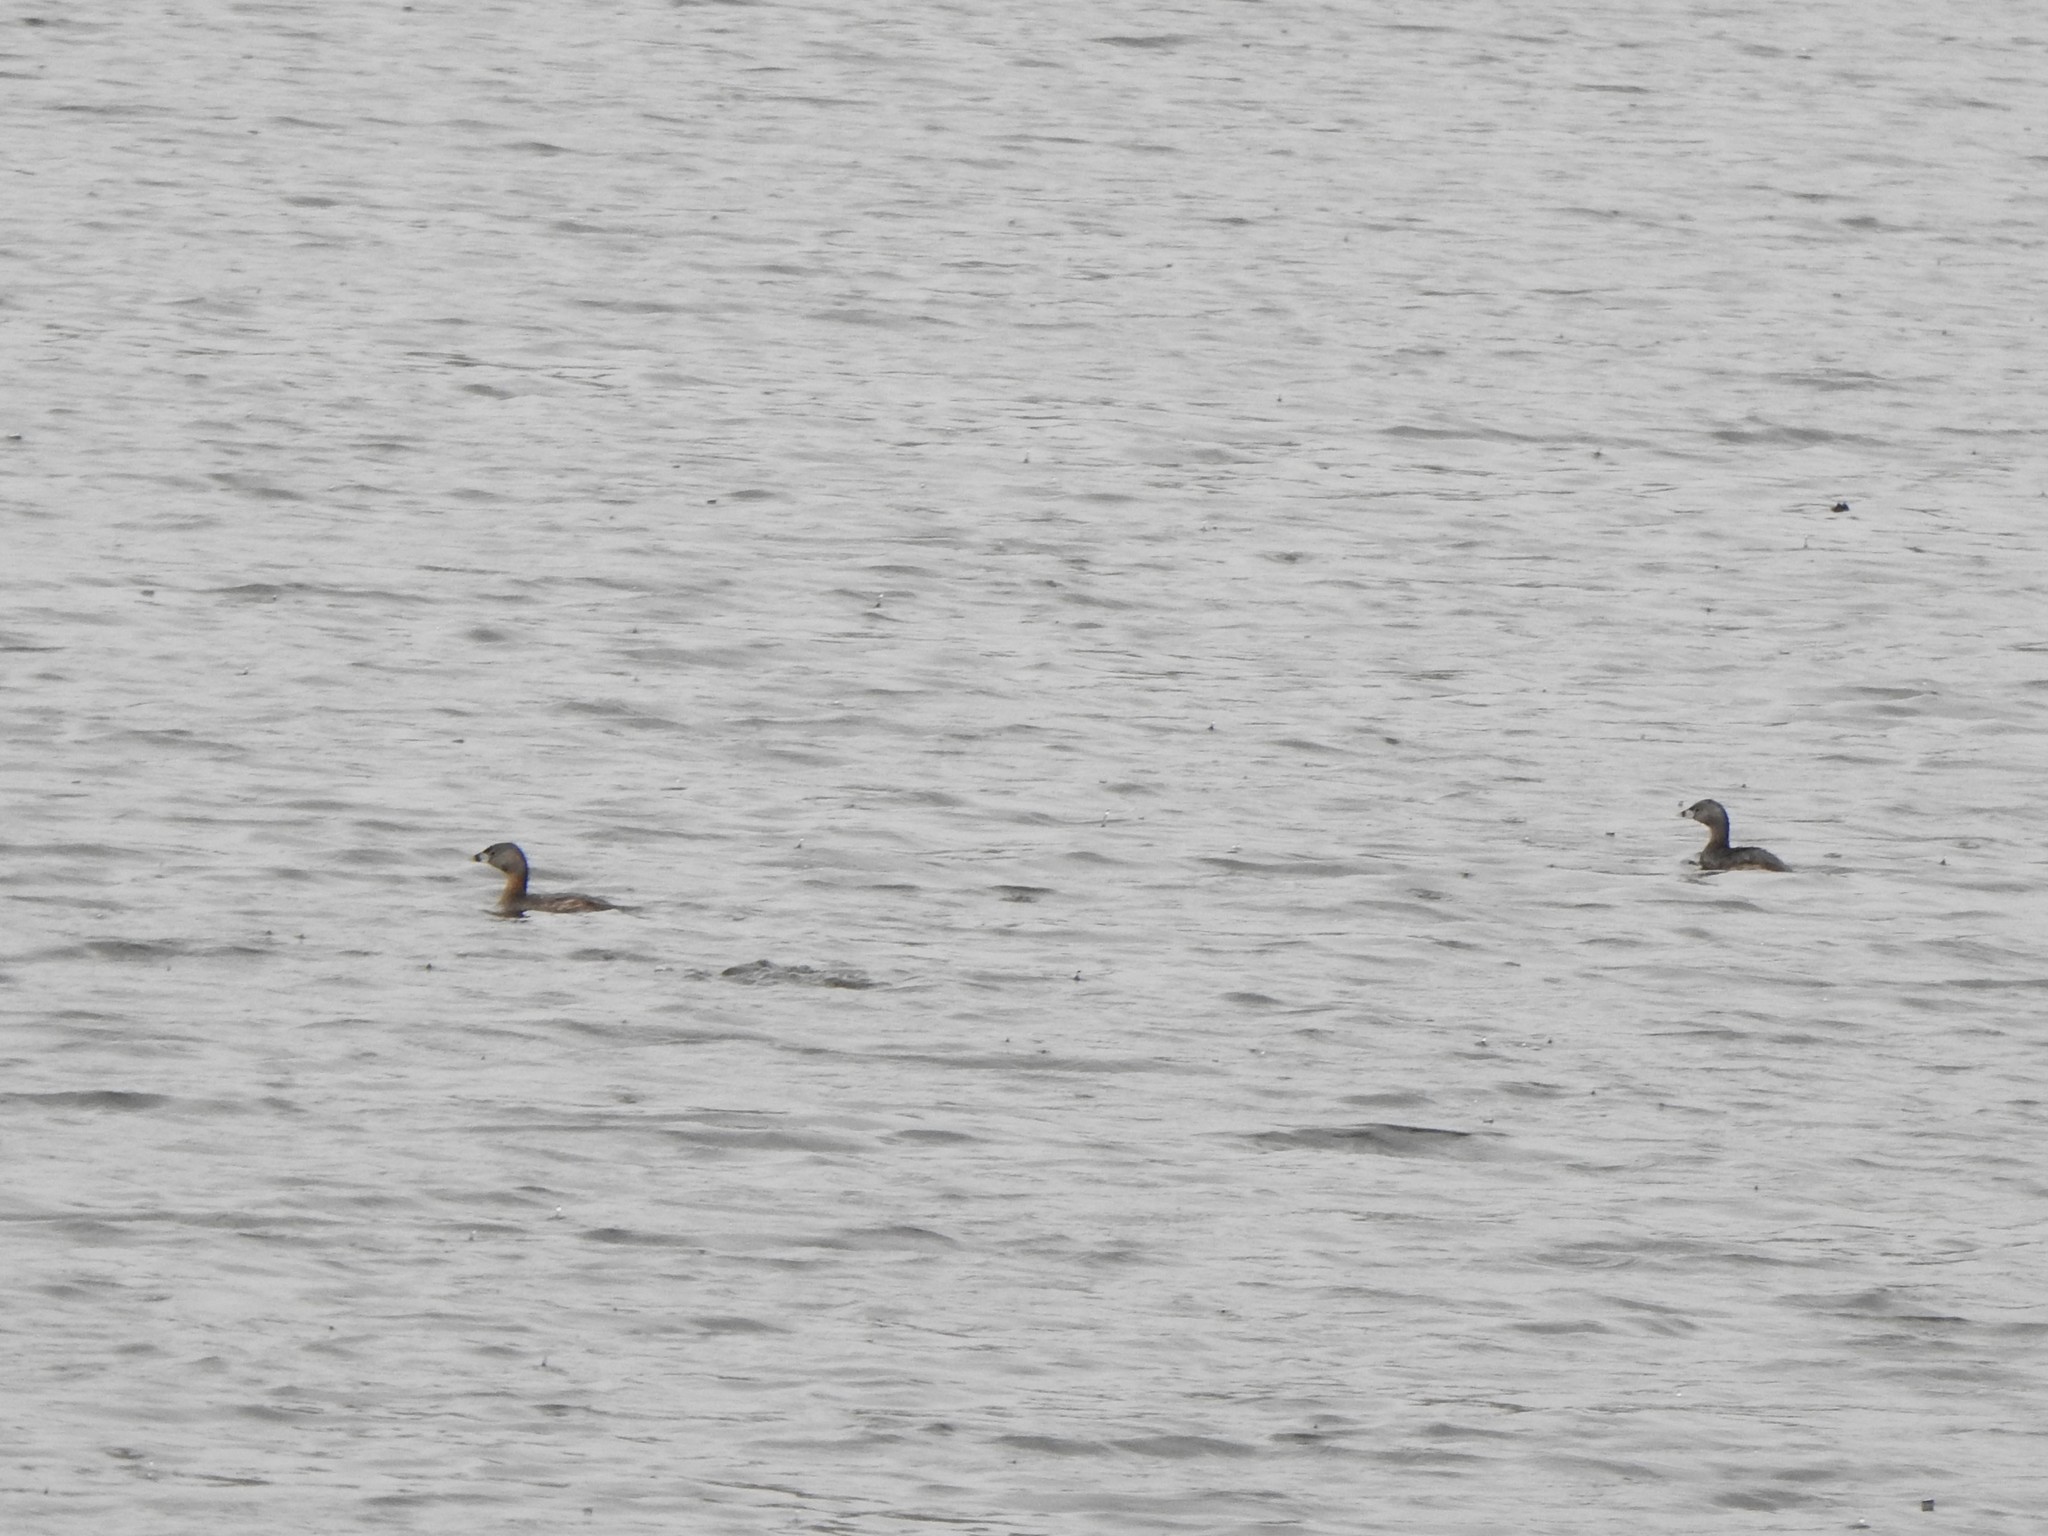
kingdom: Animalia
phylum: Chordata
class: Aves
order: Podicipediformes
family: Podicipedidae
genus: Podilymbus
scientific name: Podilymbus podiceps
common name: Pied-billed grebe
